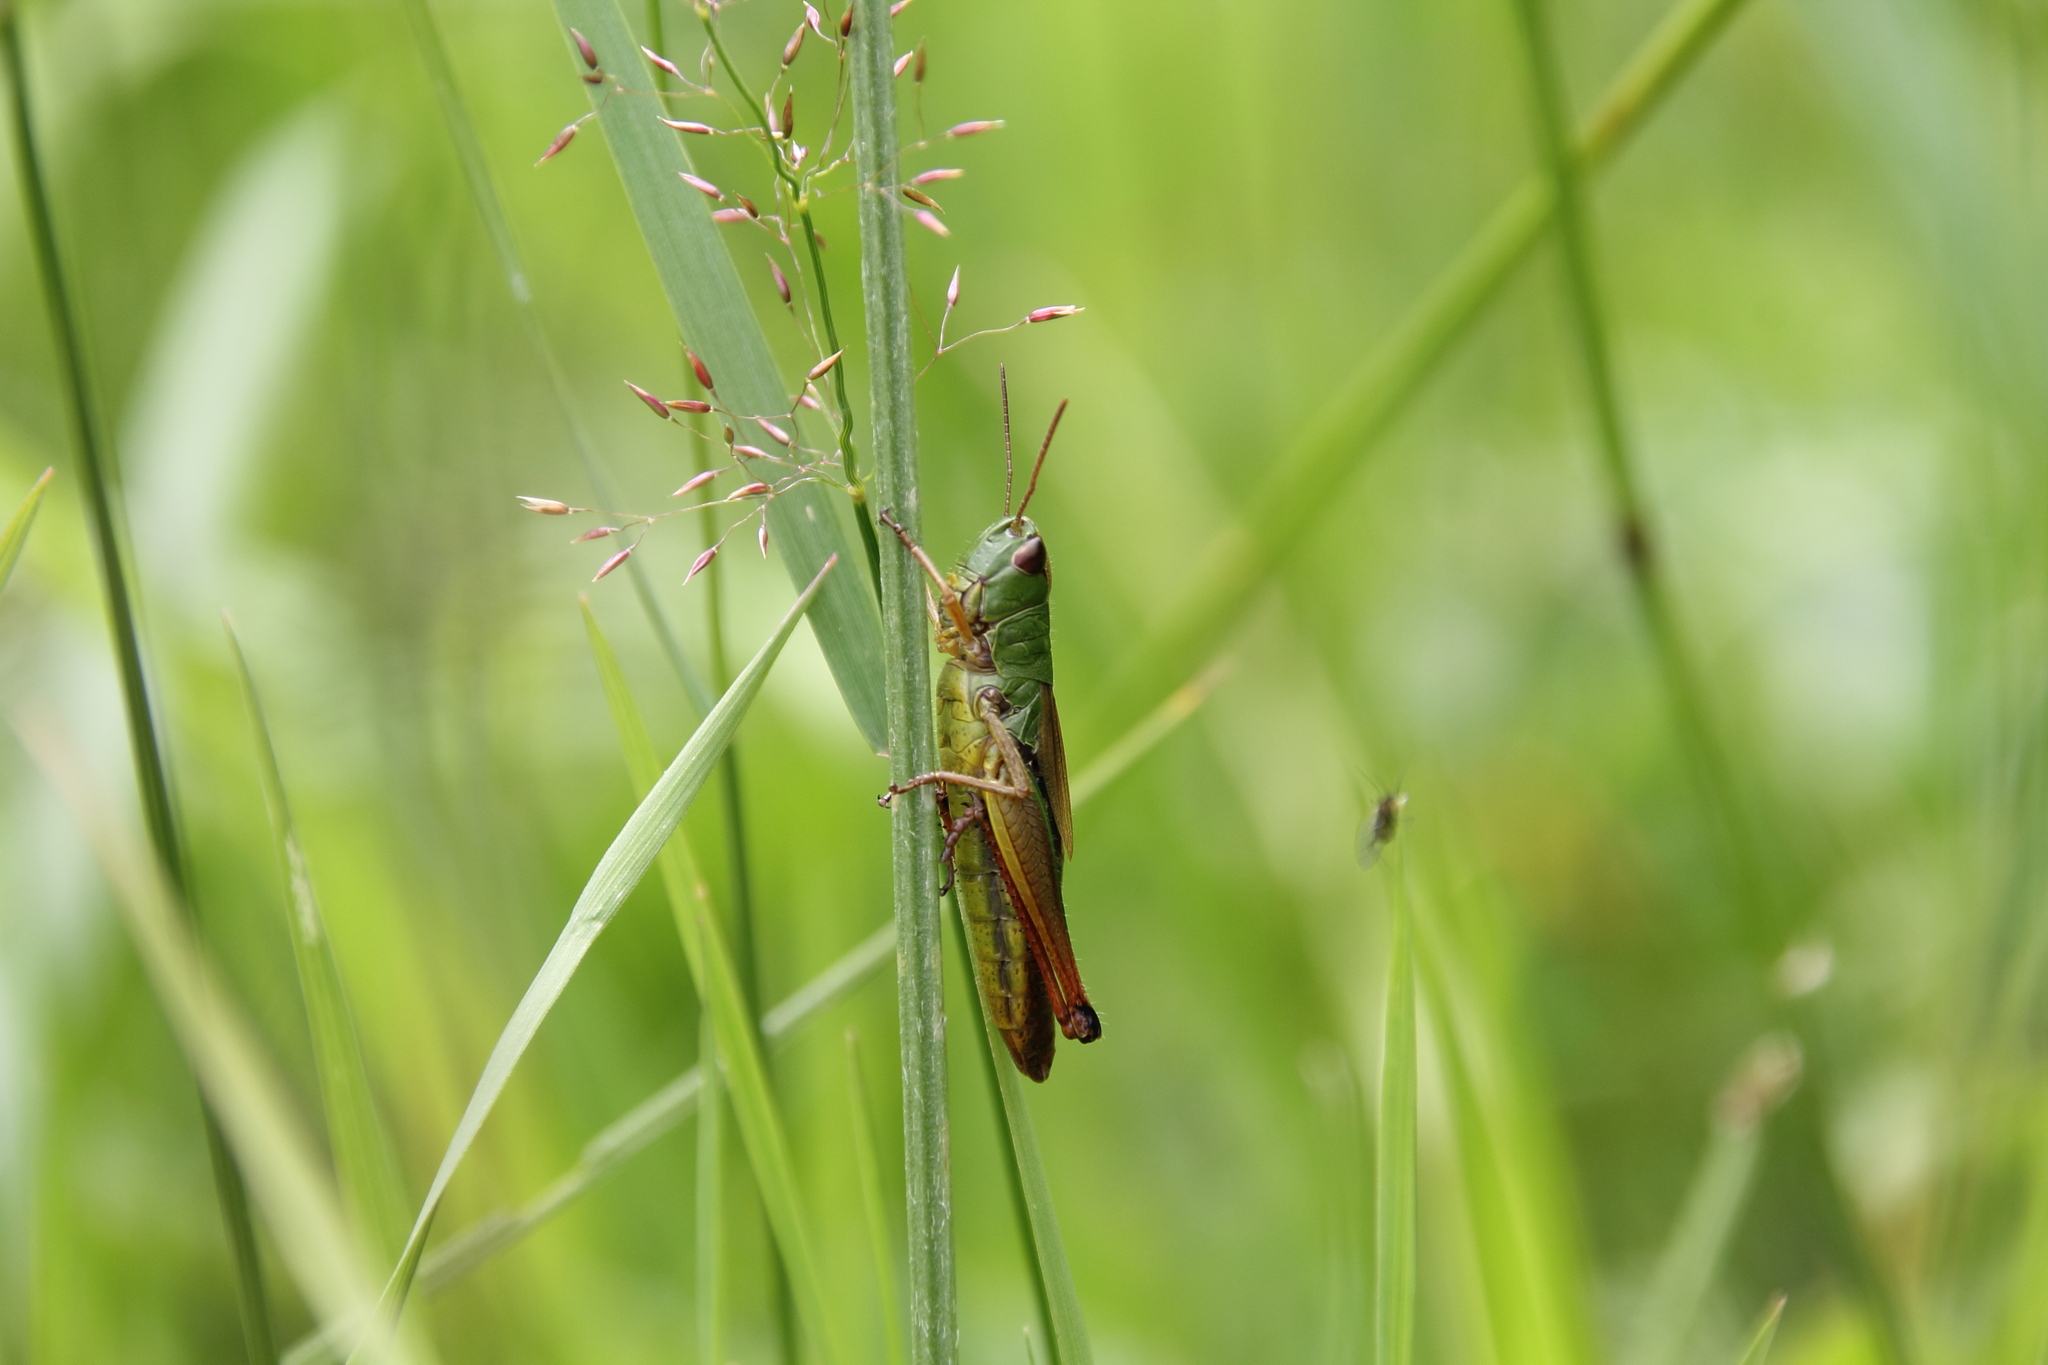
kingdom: Animalia
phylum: Arthropoda
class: Insecta
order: Orthoptera
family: Acrididae
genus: Pseudochorthippus
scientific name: Pseudochorthippus parallelus
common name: Meadow grasshopper
